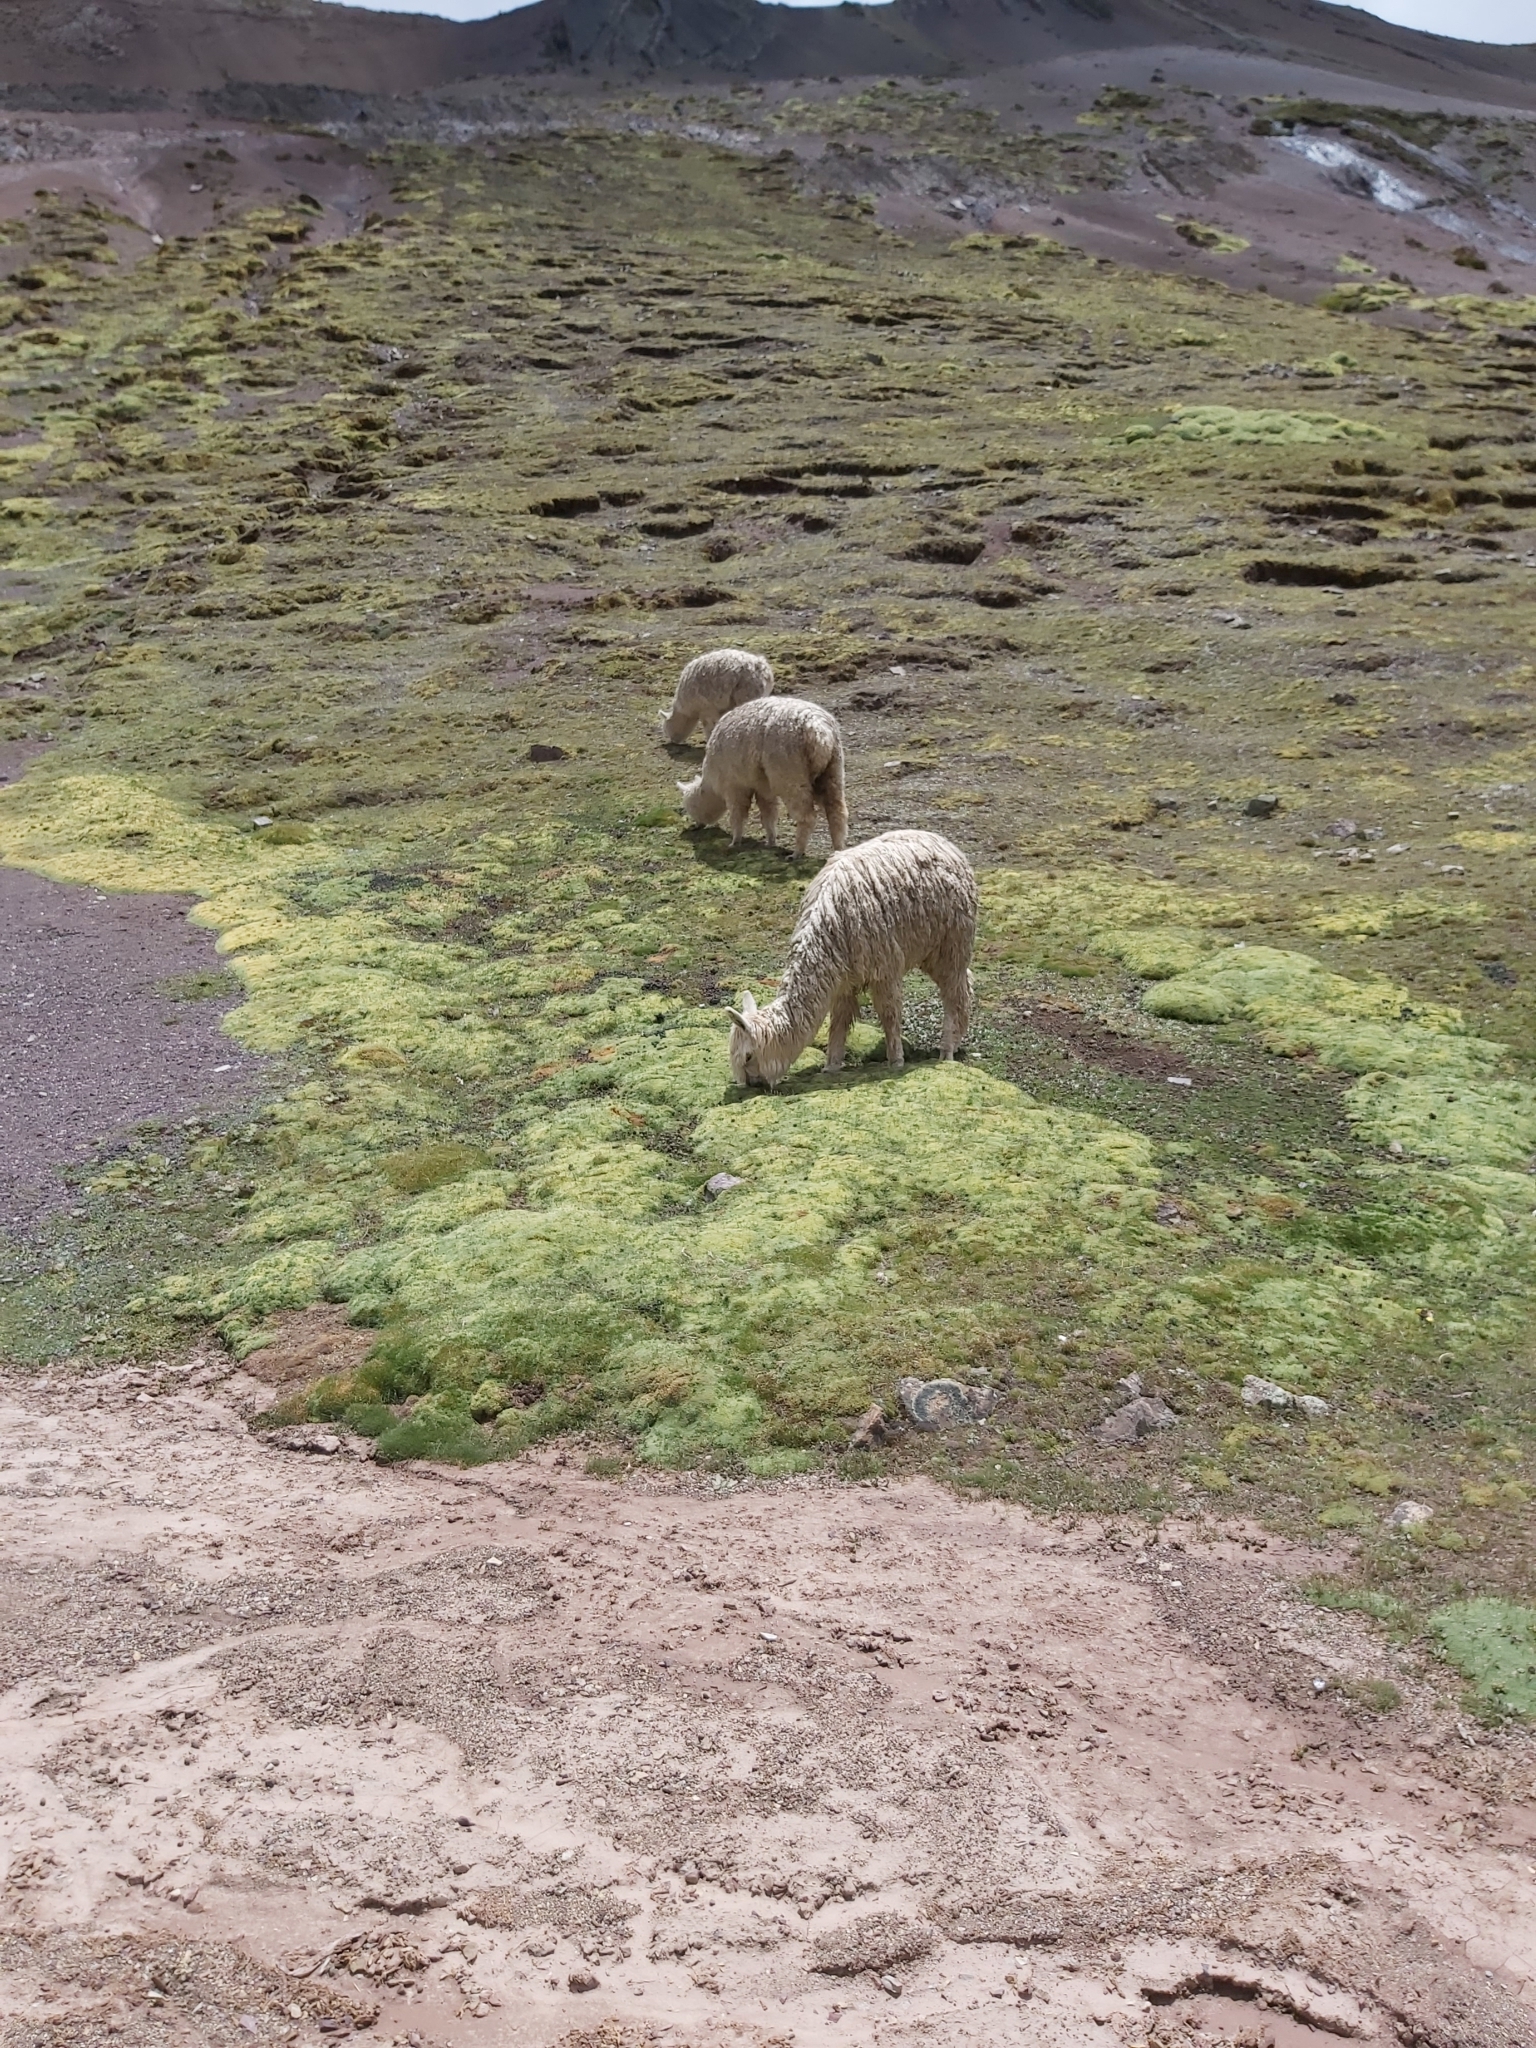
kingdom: Animalia
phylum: Chordata
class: Mammalia
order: Artiodactyla
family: Camelidae
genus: Vicugna
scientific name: Vicugna pacos
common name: Alpaca
